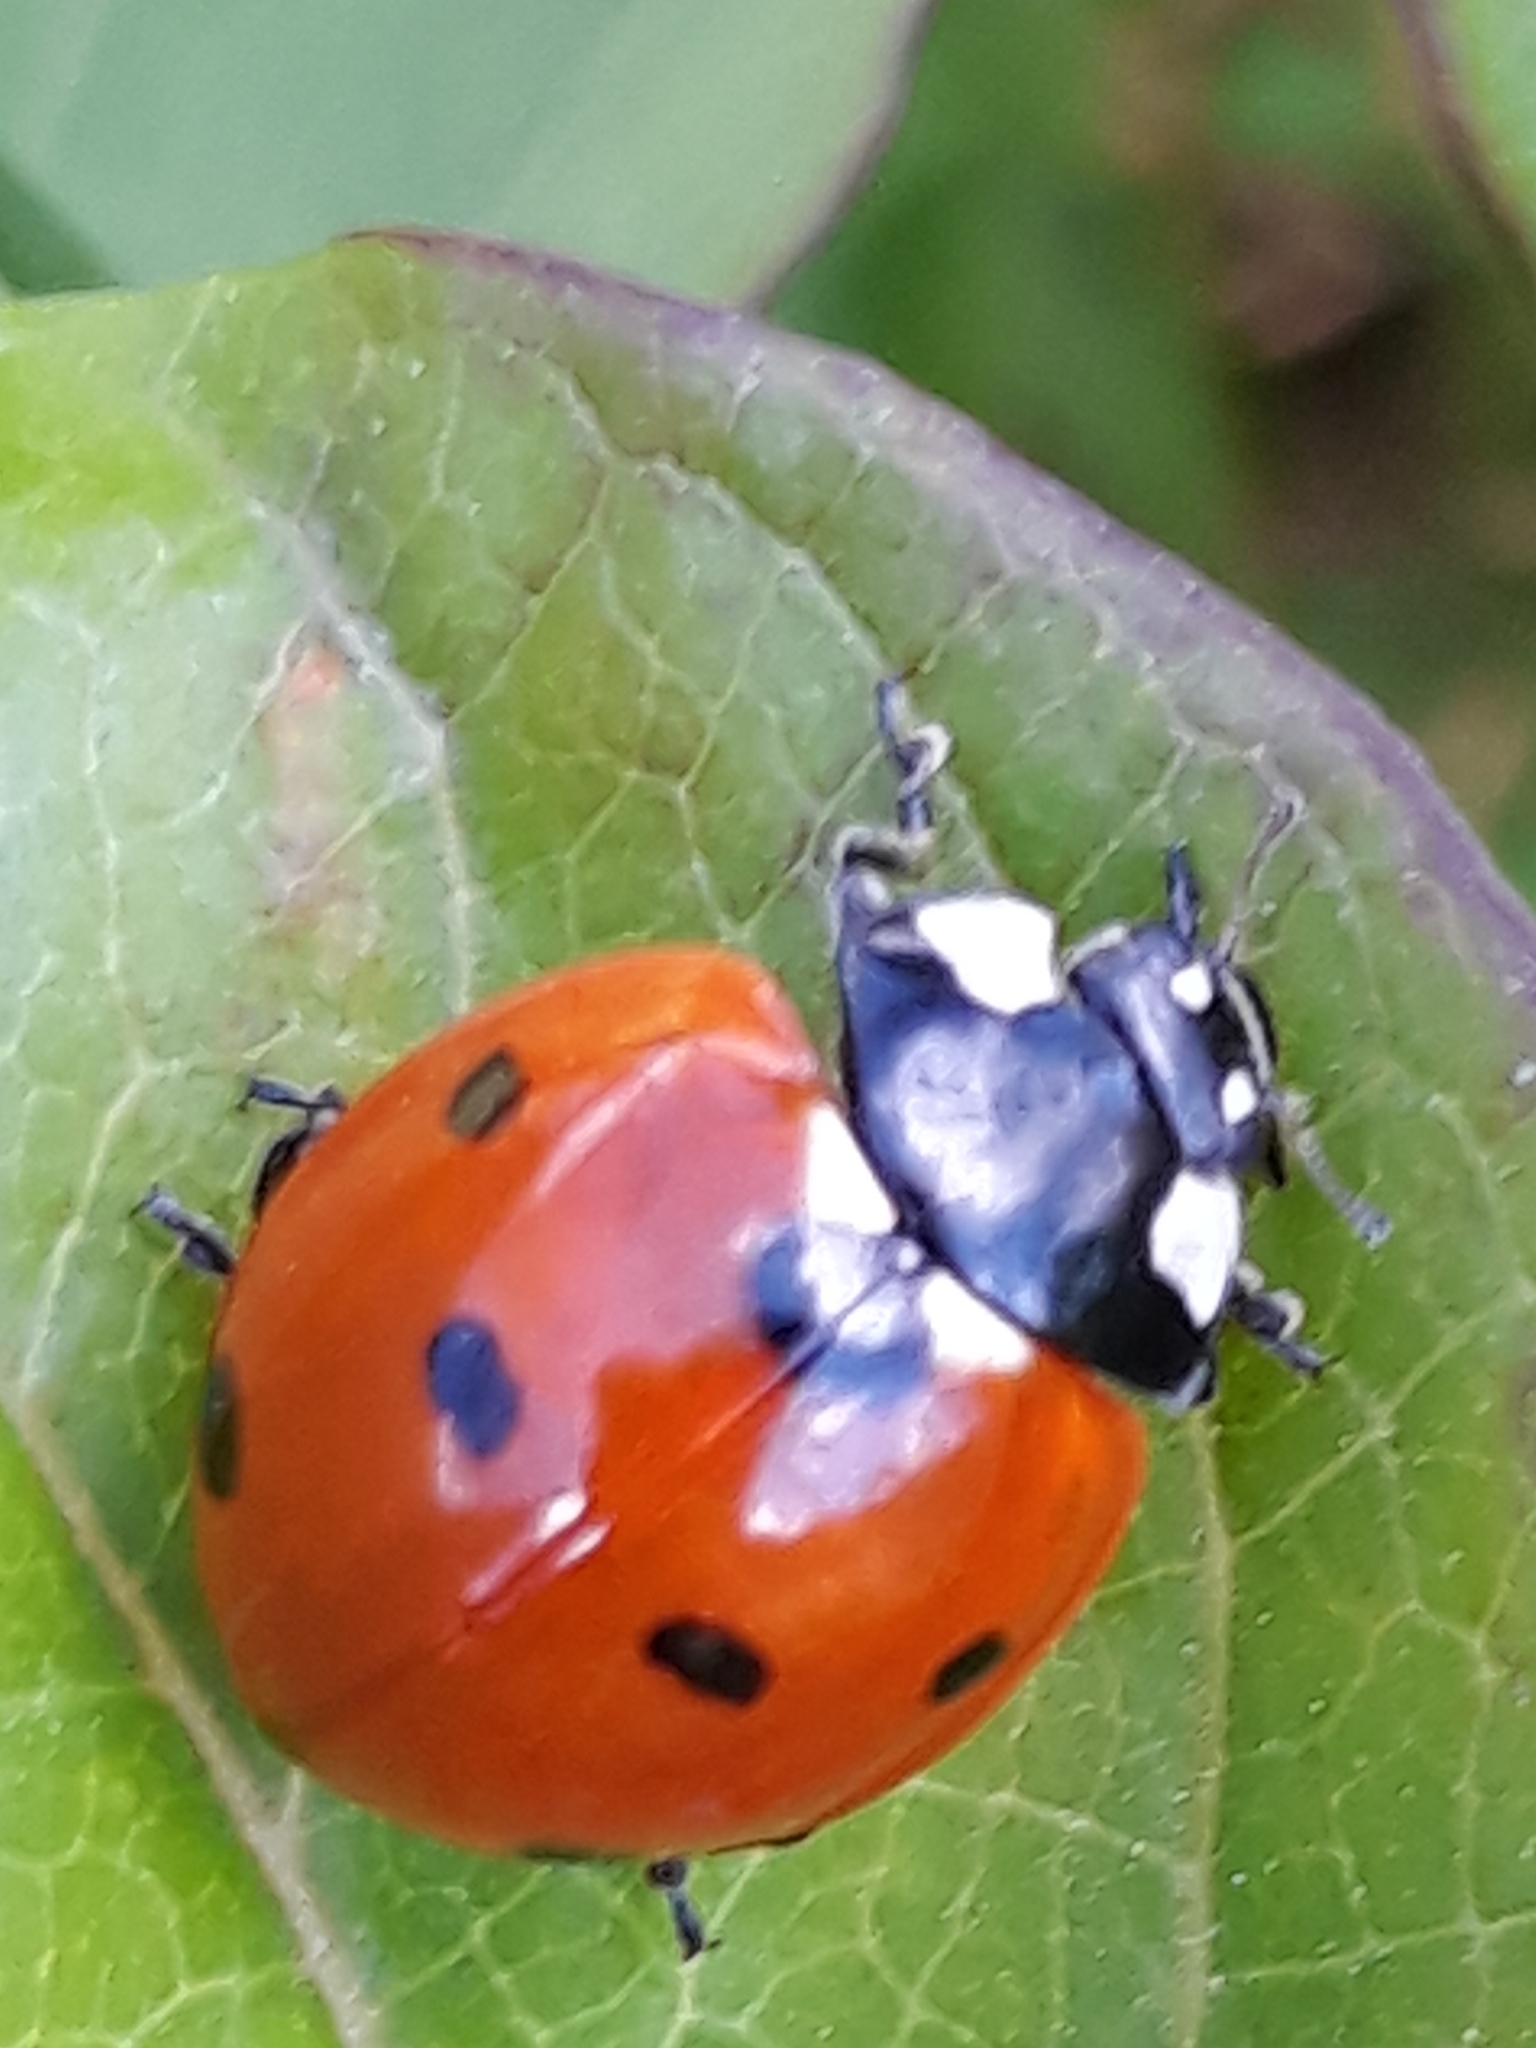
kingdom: Animalia
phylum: Arthropoda
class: Insecta
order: Coleoptera
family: Coccinellidae
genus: Coccinella
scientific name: Coccinella septempunctata
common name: Sevenspotted lady beetle
